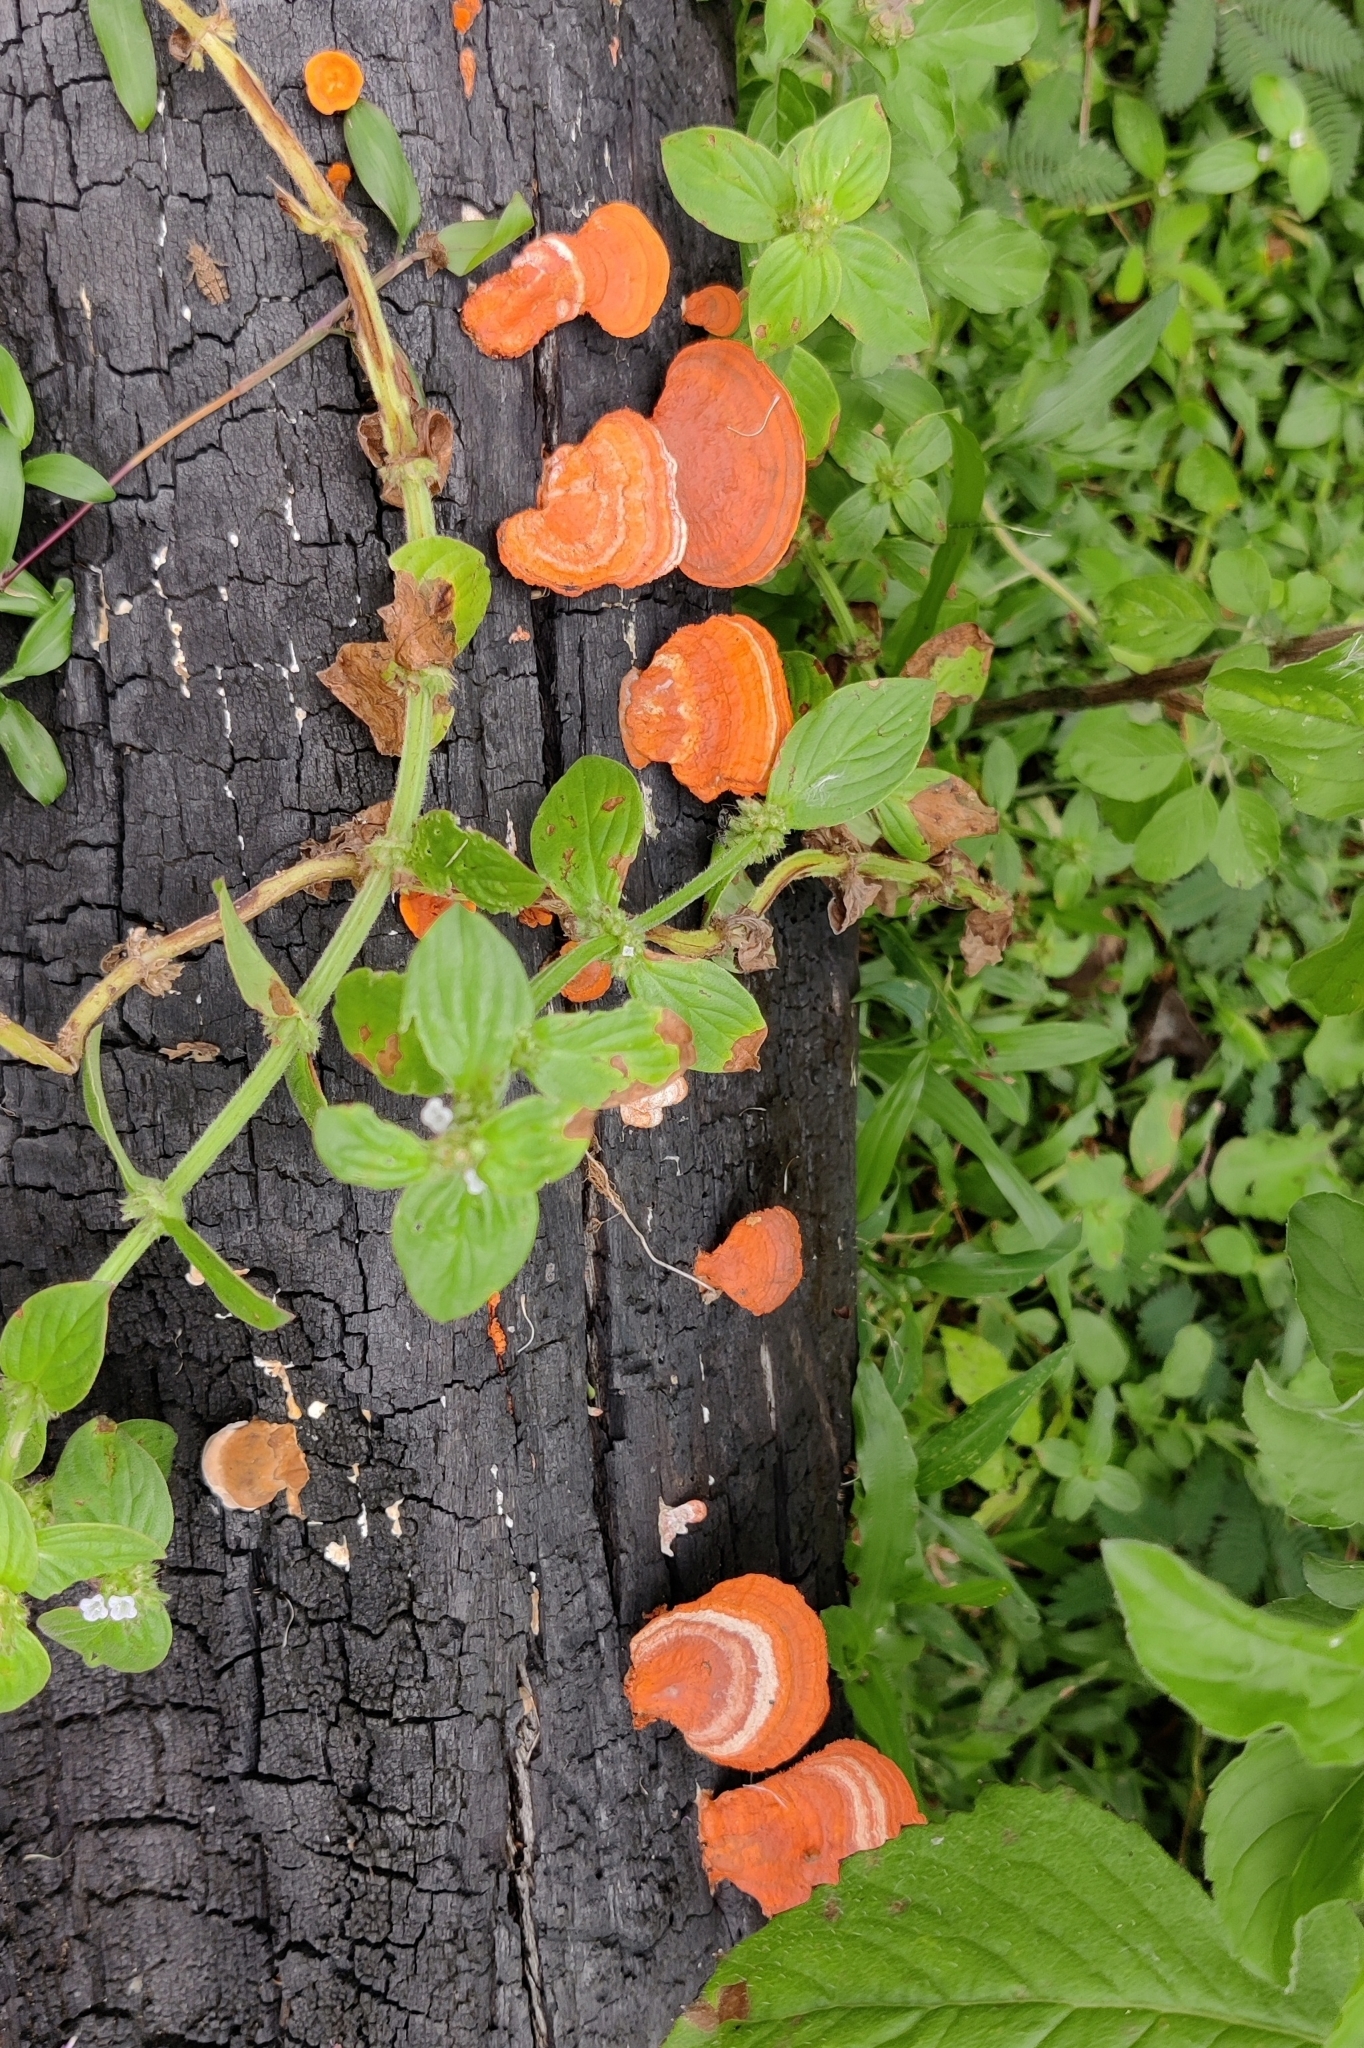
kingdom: Fungi
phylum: Basidiomycota
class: Agaricomycetes
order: Polyporales
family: Polyporaceae
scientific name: Polyporaceae
